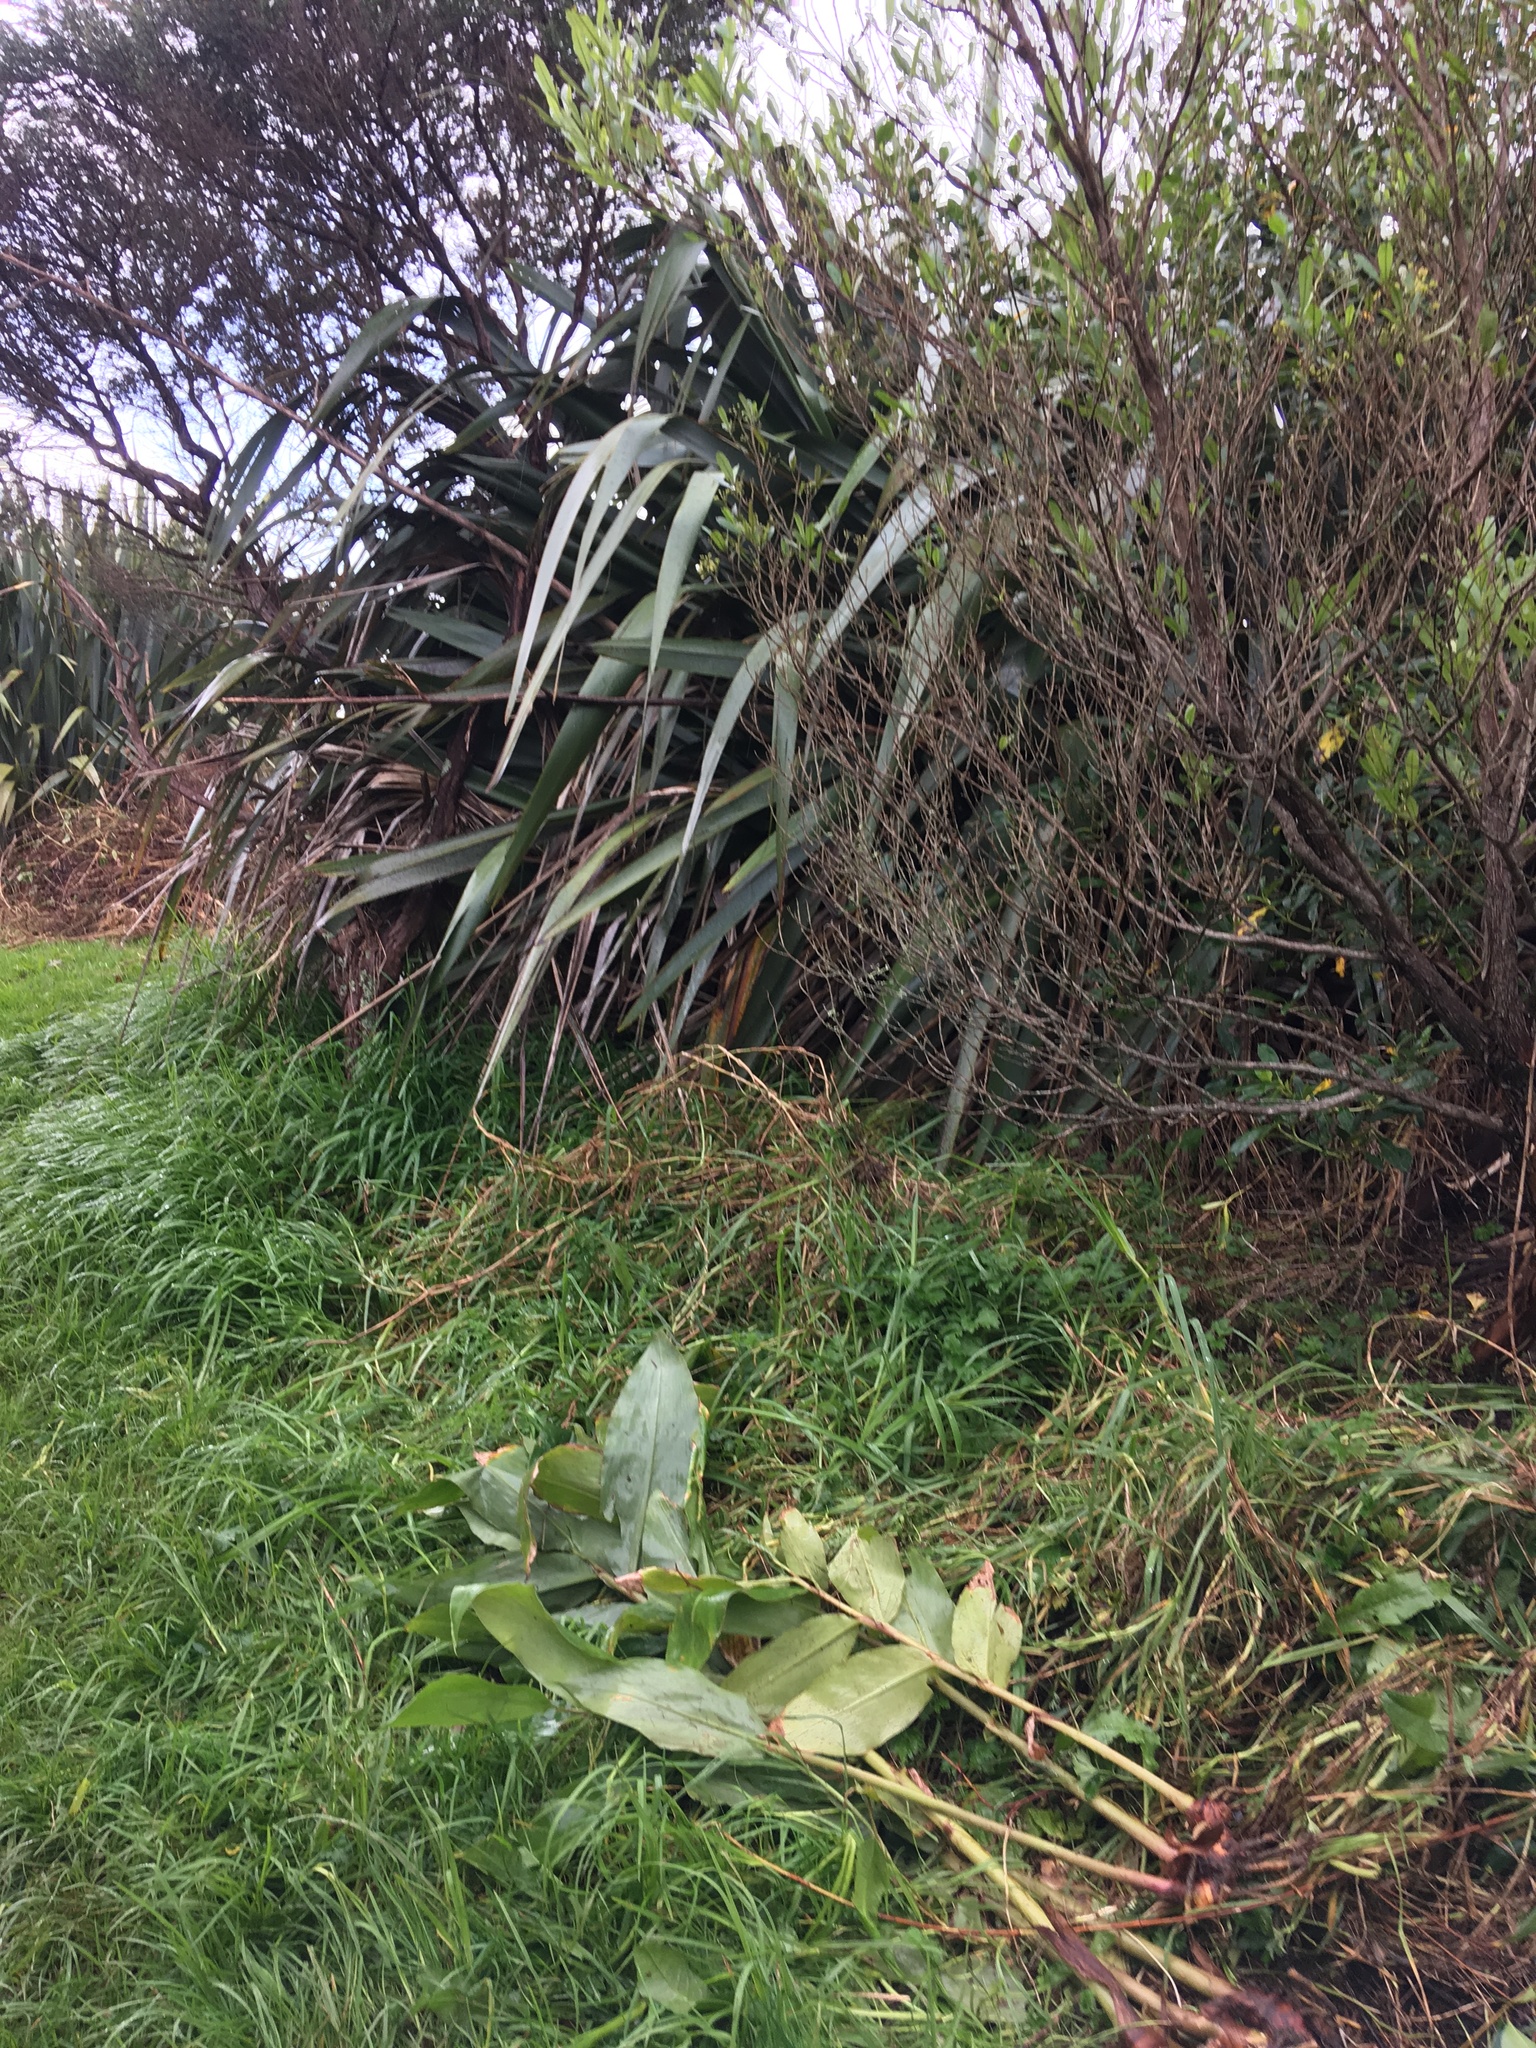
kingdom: Plantae
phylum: Tracheophyta
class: Liliopsida
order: Zingiberales
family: Zingiberaceae
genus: Hedychium
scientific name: Hedychium gardnerianum
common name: Himalayan ginger
